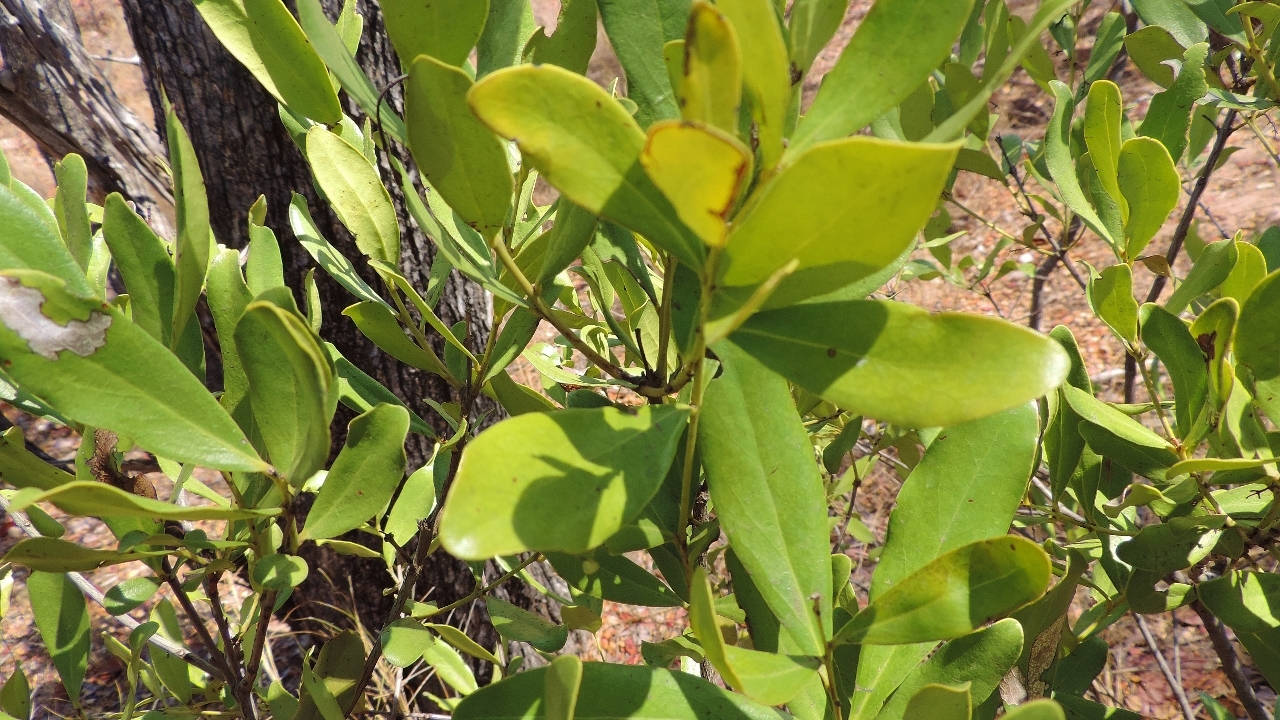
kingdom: Plantae
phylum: Tracheophyta
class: Magnoliopsida
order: Ericales
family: Ebenaceae
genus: Euclea
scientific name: Euclea racemosa
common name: Dune guarri
